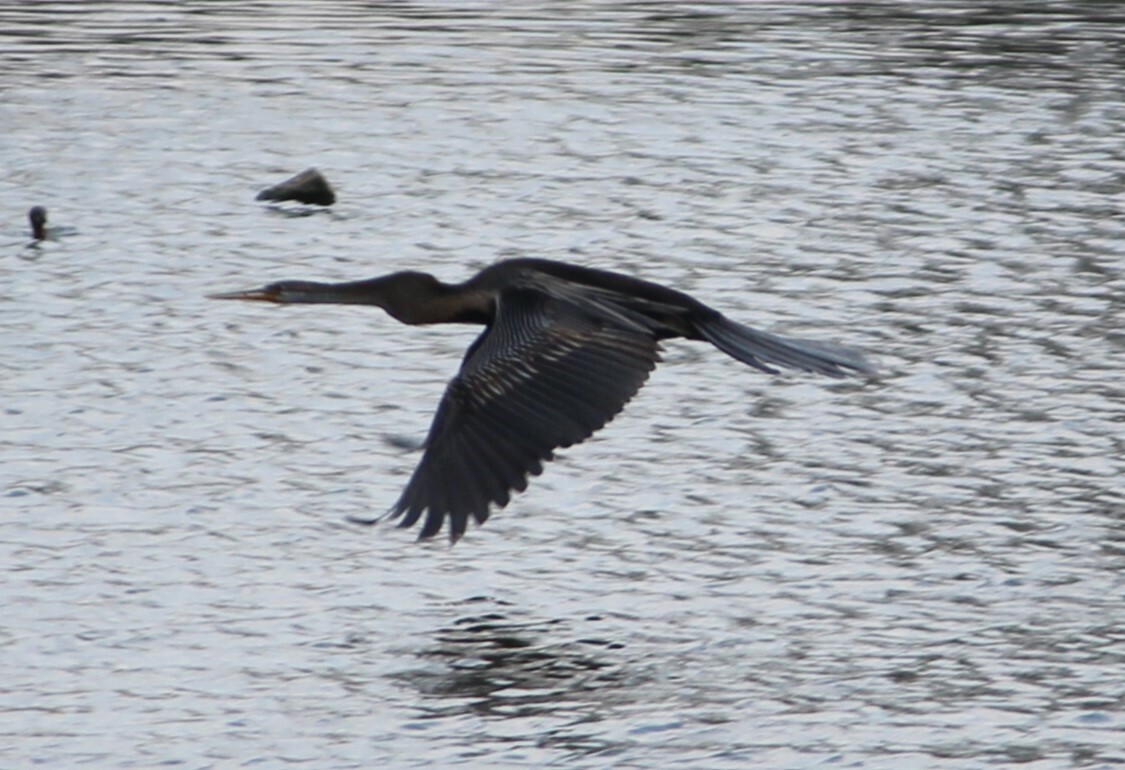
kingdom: Animalia
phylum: Chordata
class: Aves
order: Suliformes
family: Anhingidae
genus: Anhinga
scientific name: Anhinga melanogaster
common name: Oriental darter
